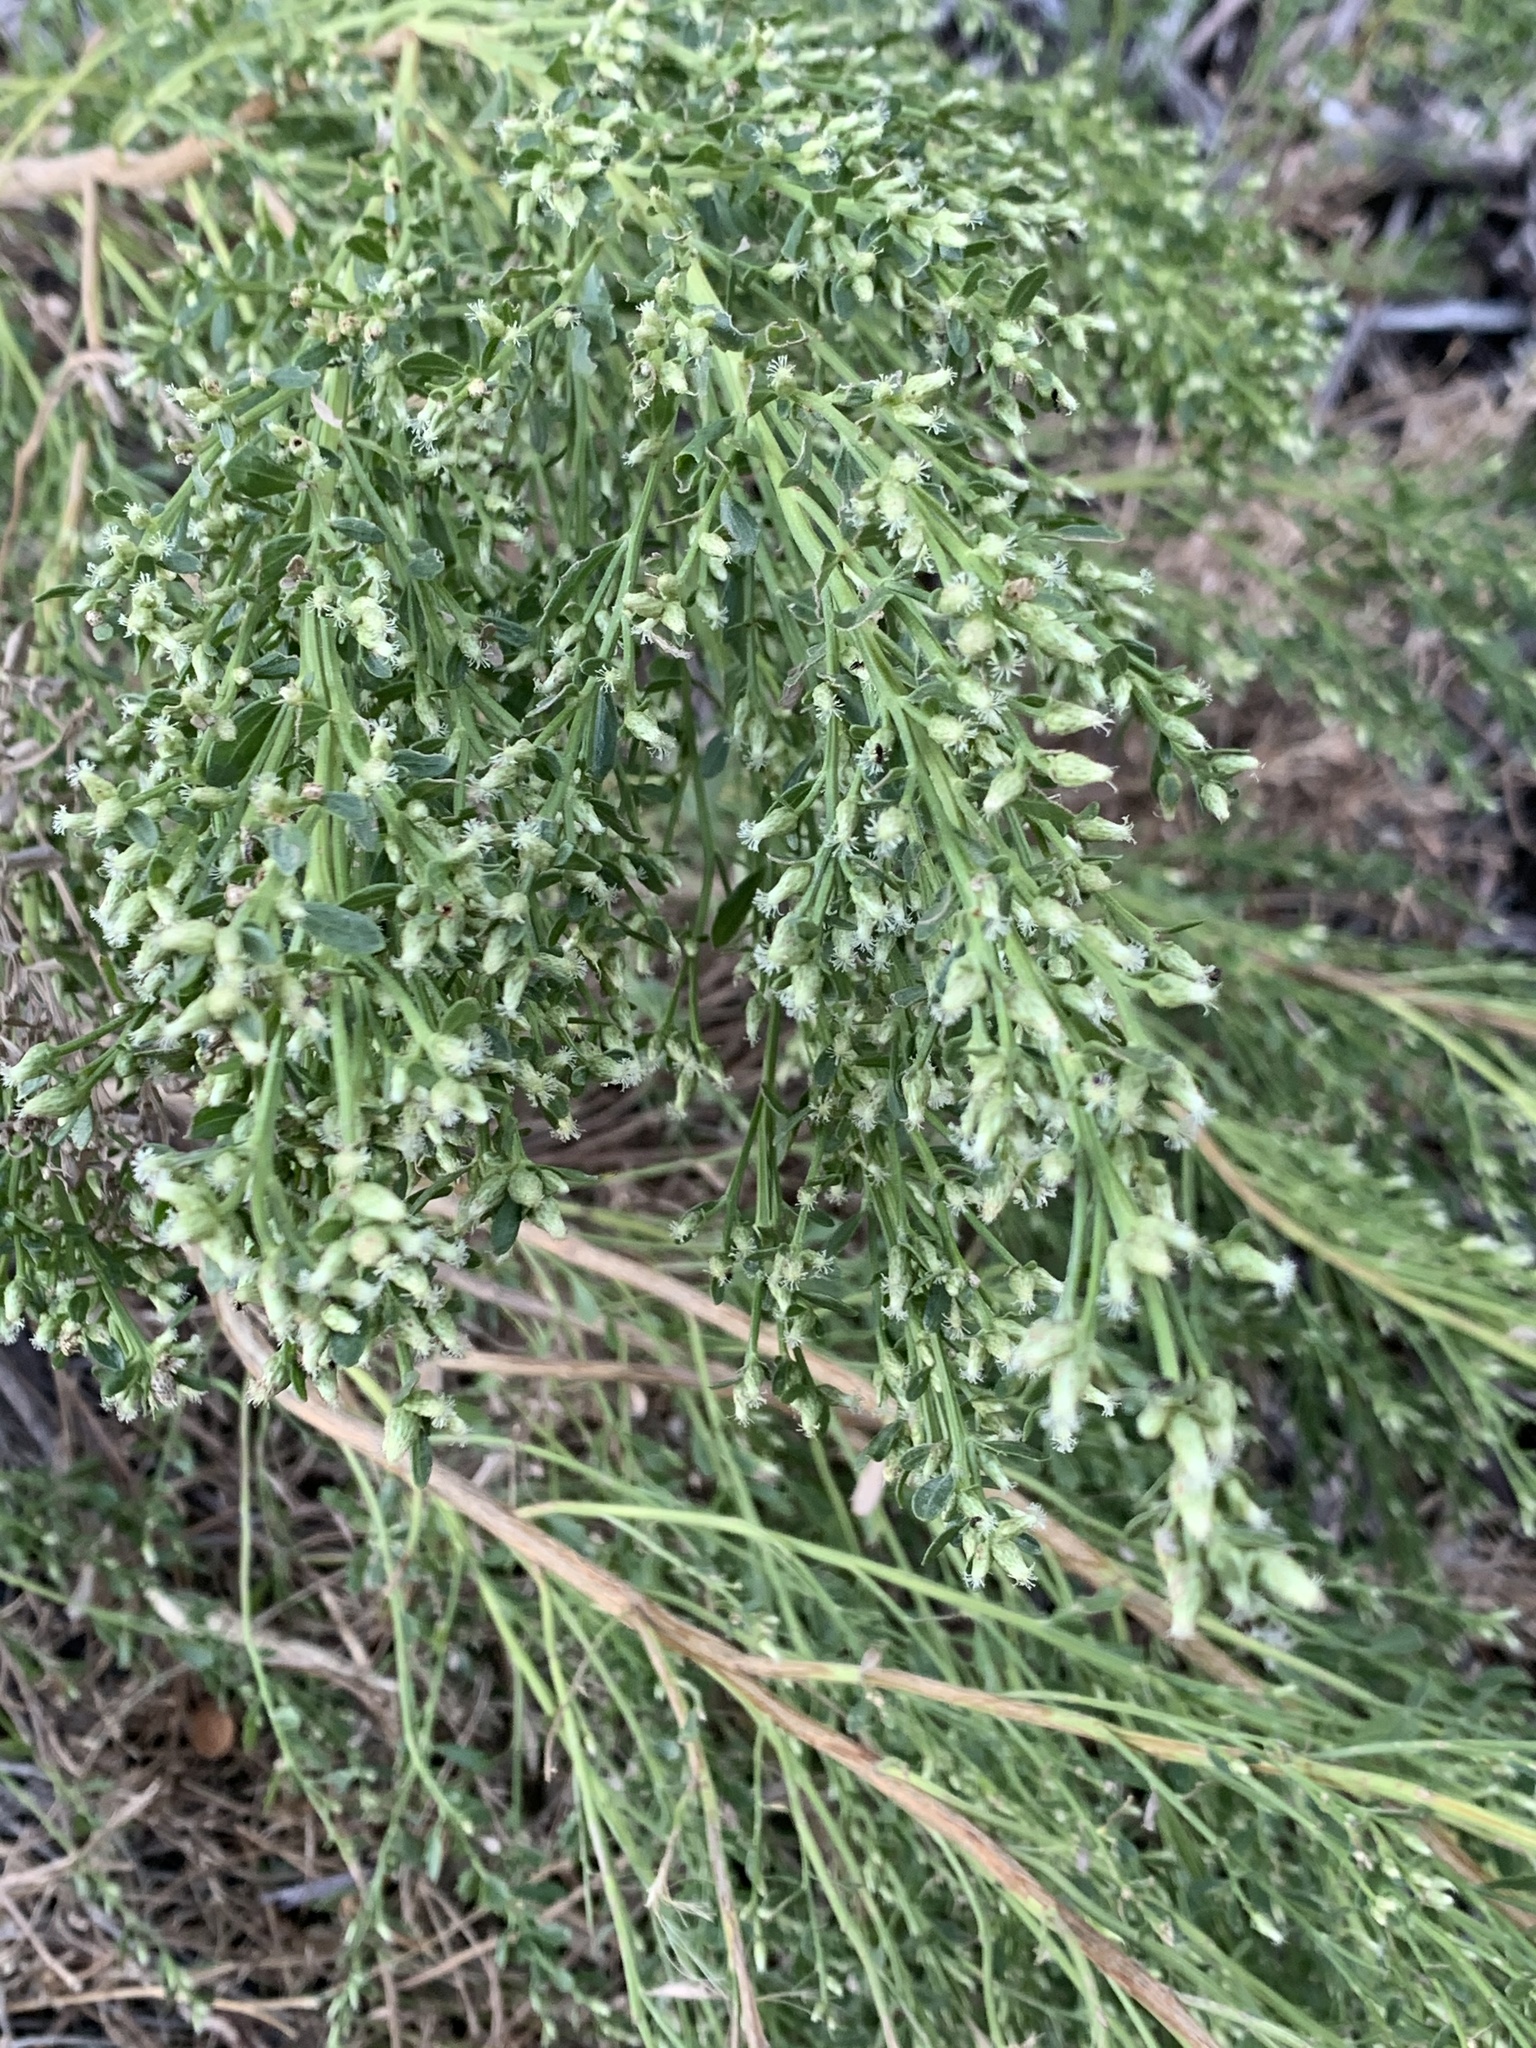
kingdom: Plantae
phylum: Tracheophyta
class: Magnoliopsida
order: Asterales
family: Asteraceae
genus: Baccharis
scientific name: Baccharis pilularis
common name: Coyotebrush
